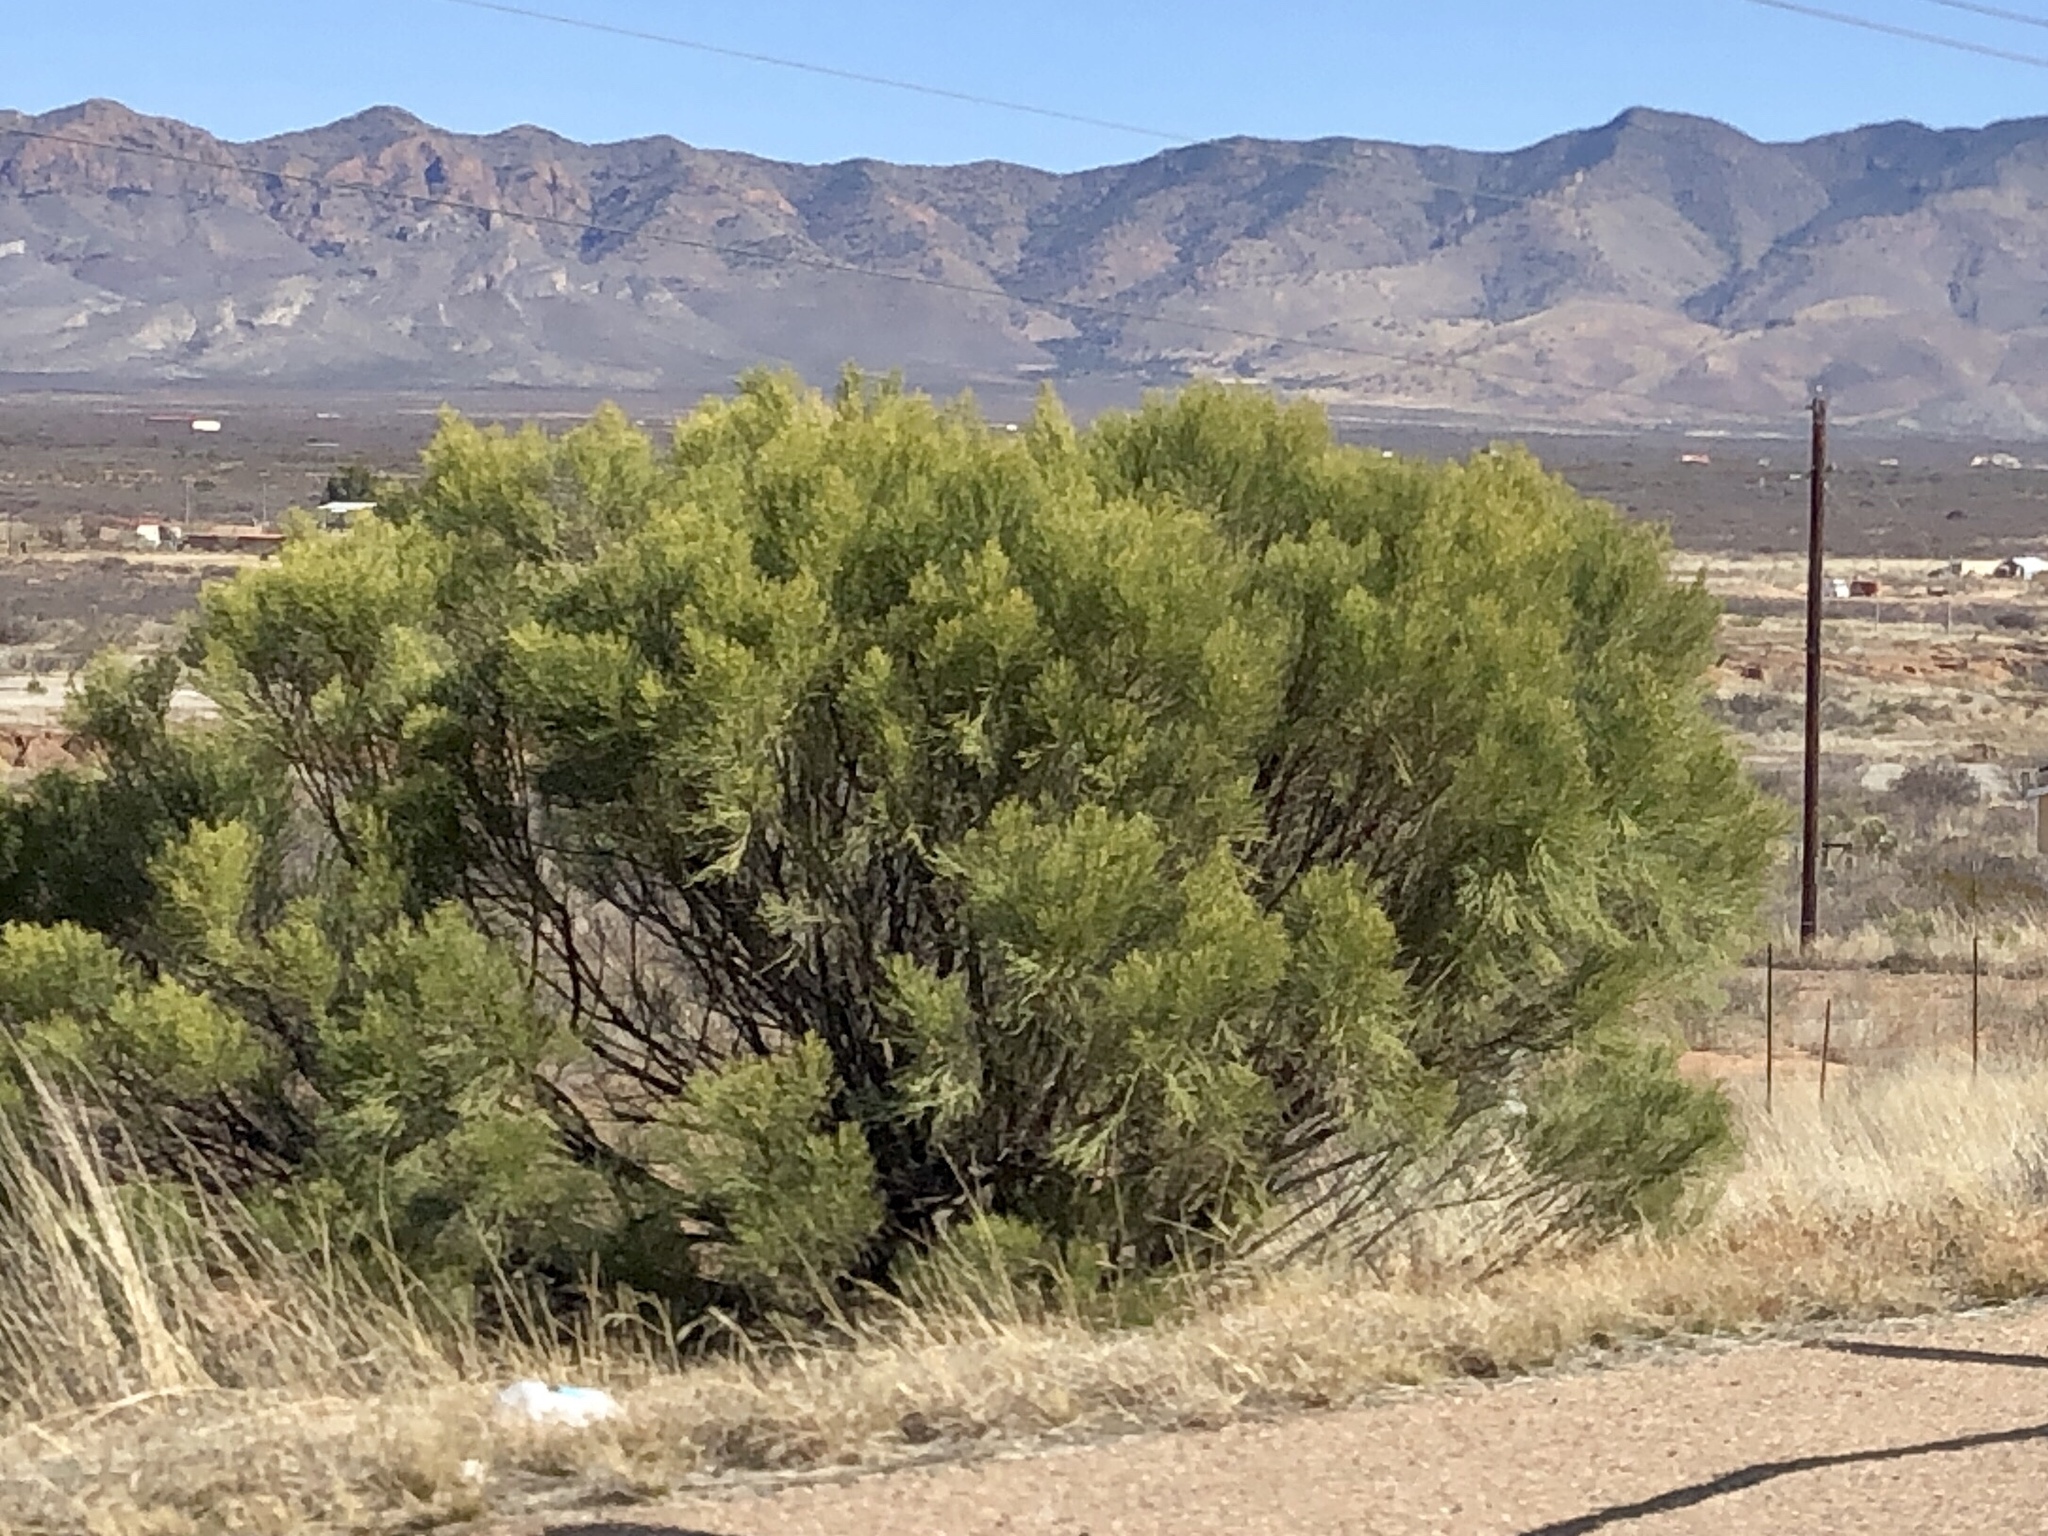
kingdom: Plantae
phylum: Tracheophyta
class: Magnoliopsida
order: Asterales
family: Asteraceae
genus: Baccharis
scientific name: Baccharis sarothroides
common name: Desert-broom
